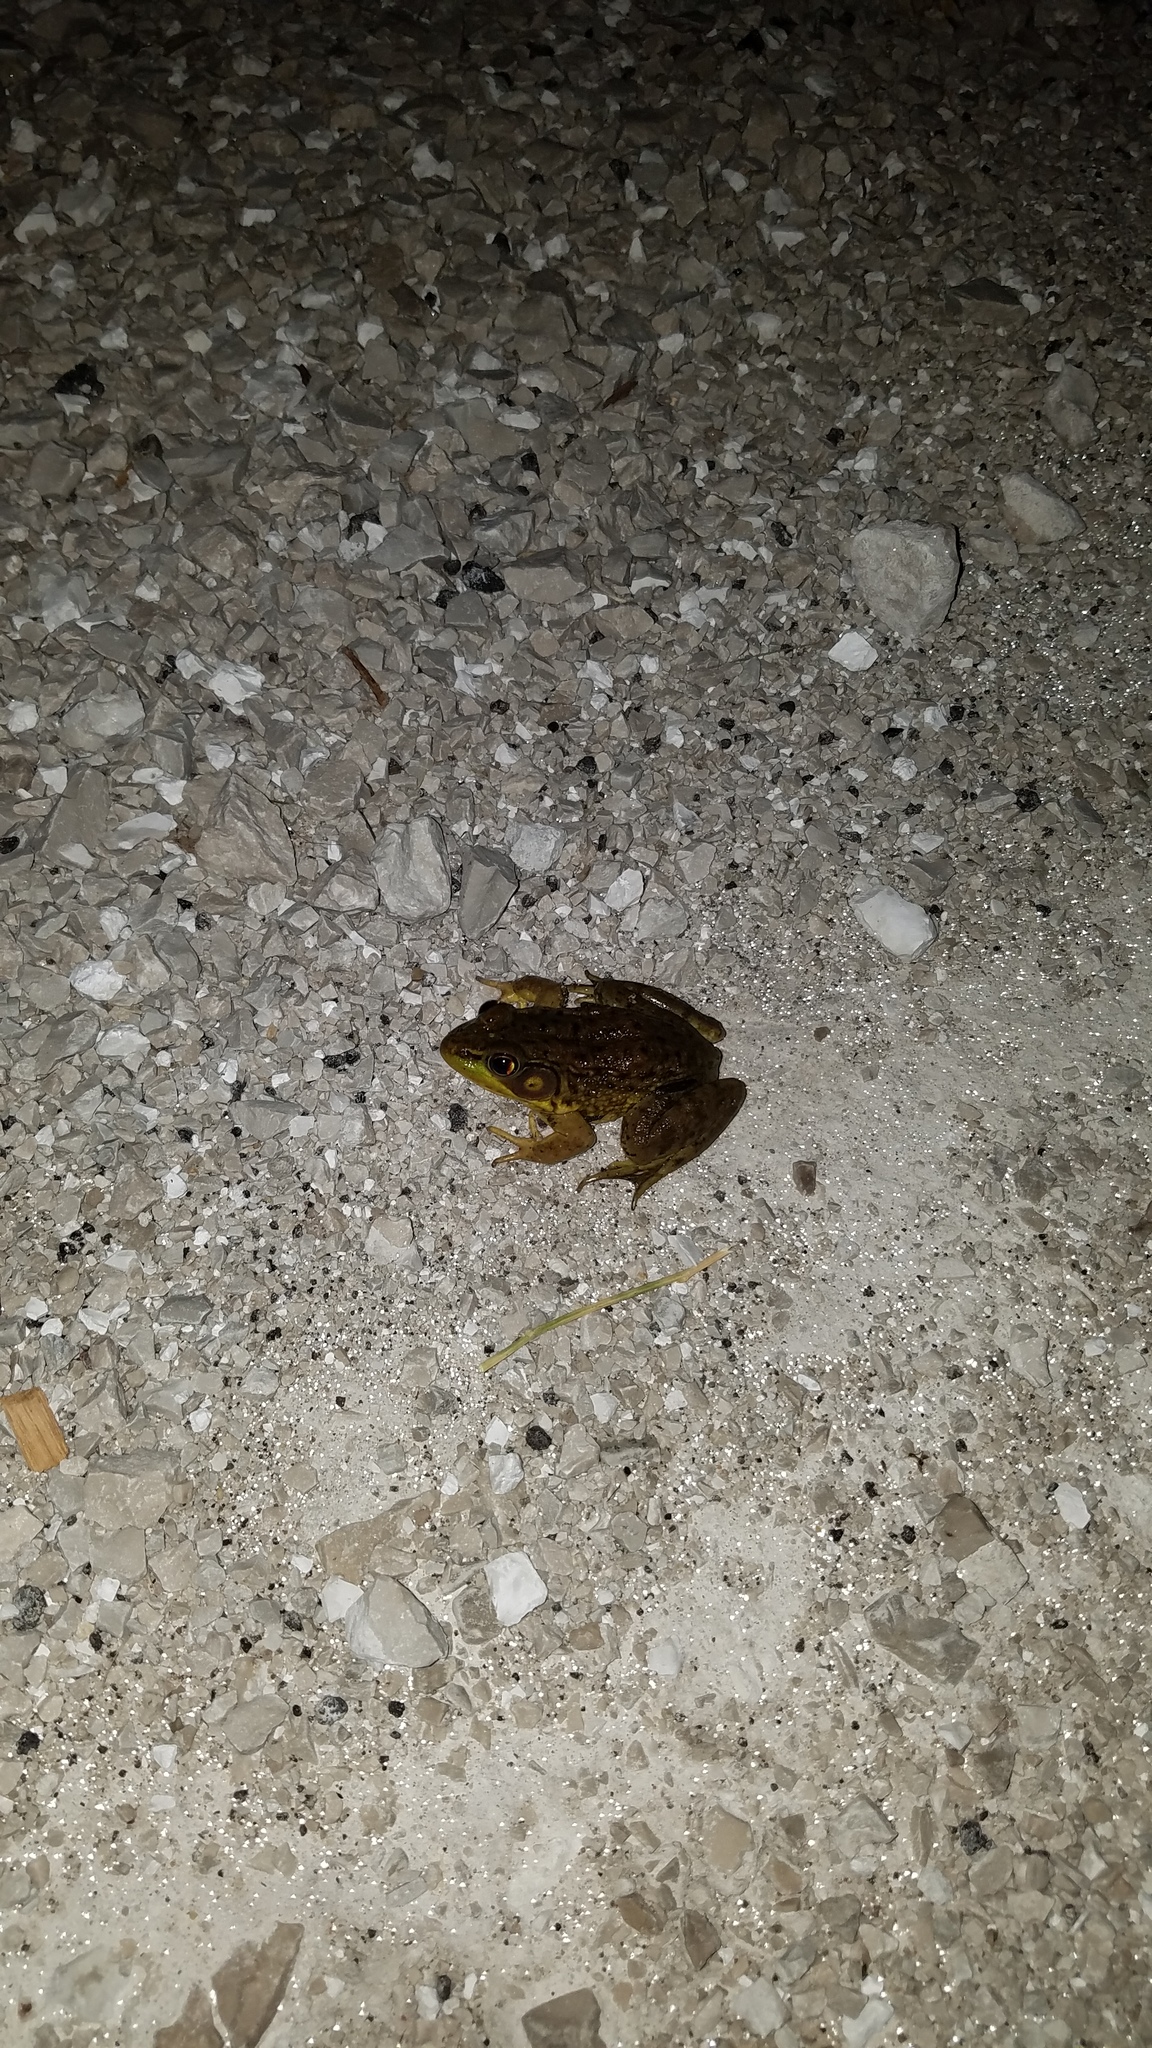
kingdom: Animalia
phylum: Chordata
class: Amphibia
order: Anura
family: Ranidae
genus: Lithobates
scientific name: Lithobates clamitans
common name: Green frog
